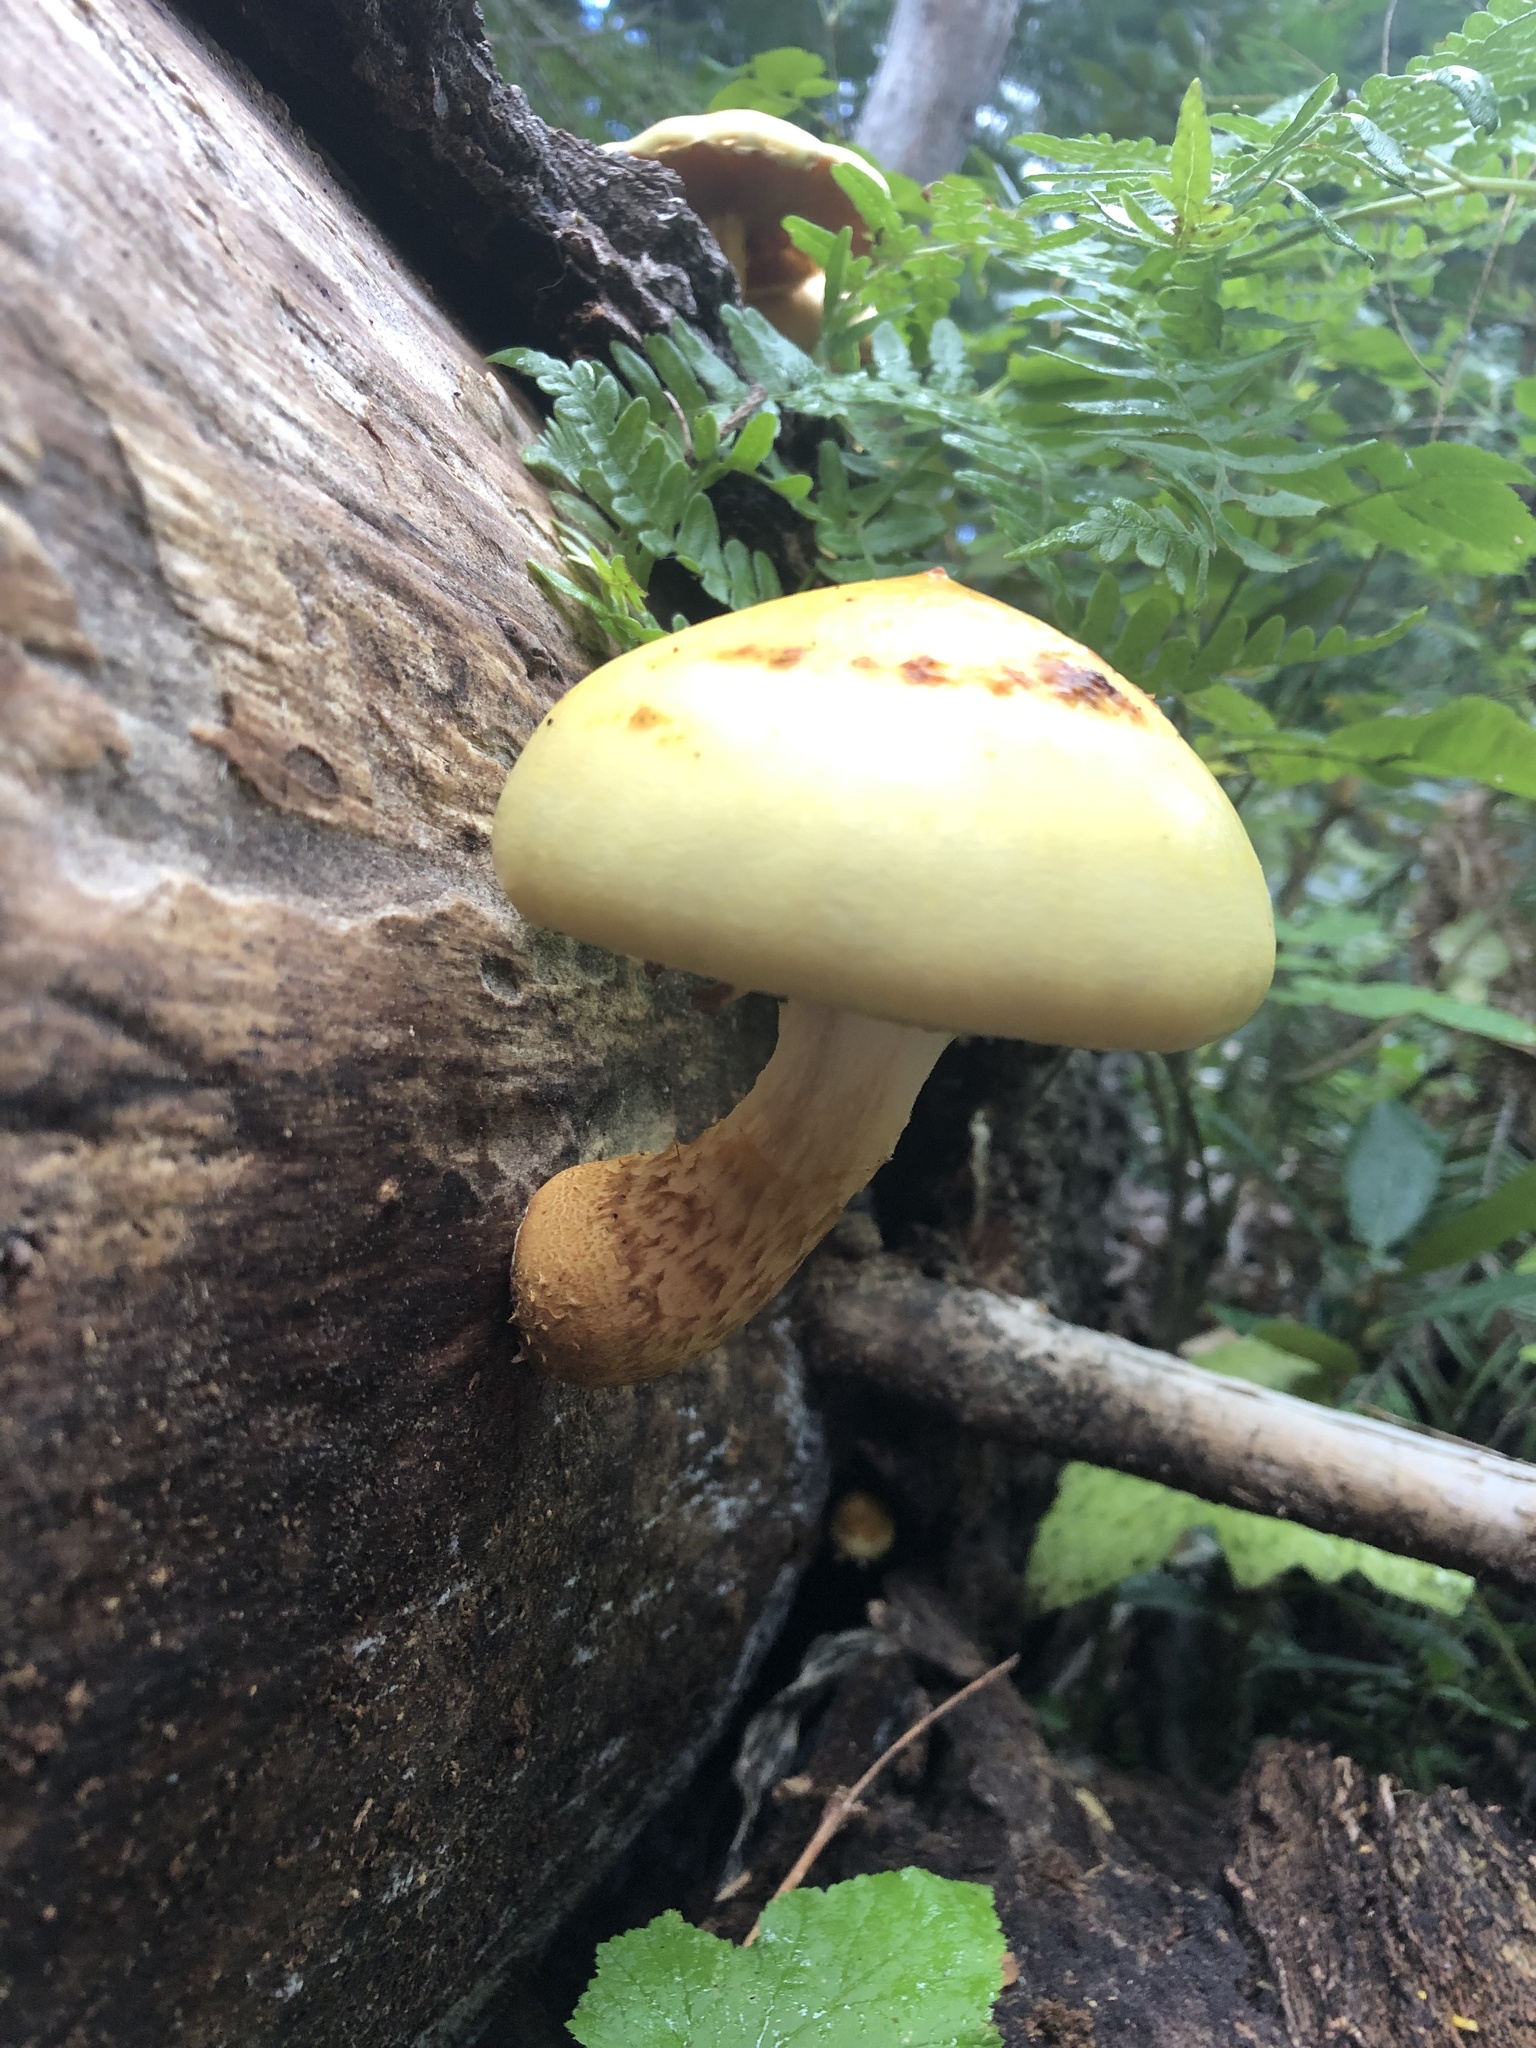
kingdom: Fungi
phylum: Basidiomycota
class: Agaricomycetes
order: Agaricales
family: Strophariaceae
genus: Pholiota
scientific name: Pholiota aurivella
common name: Golden scalycap
